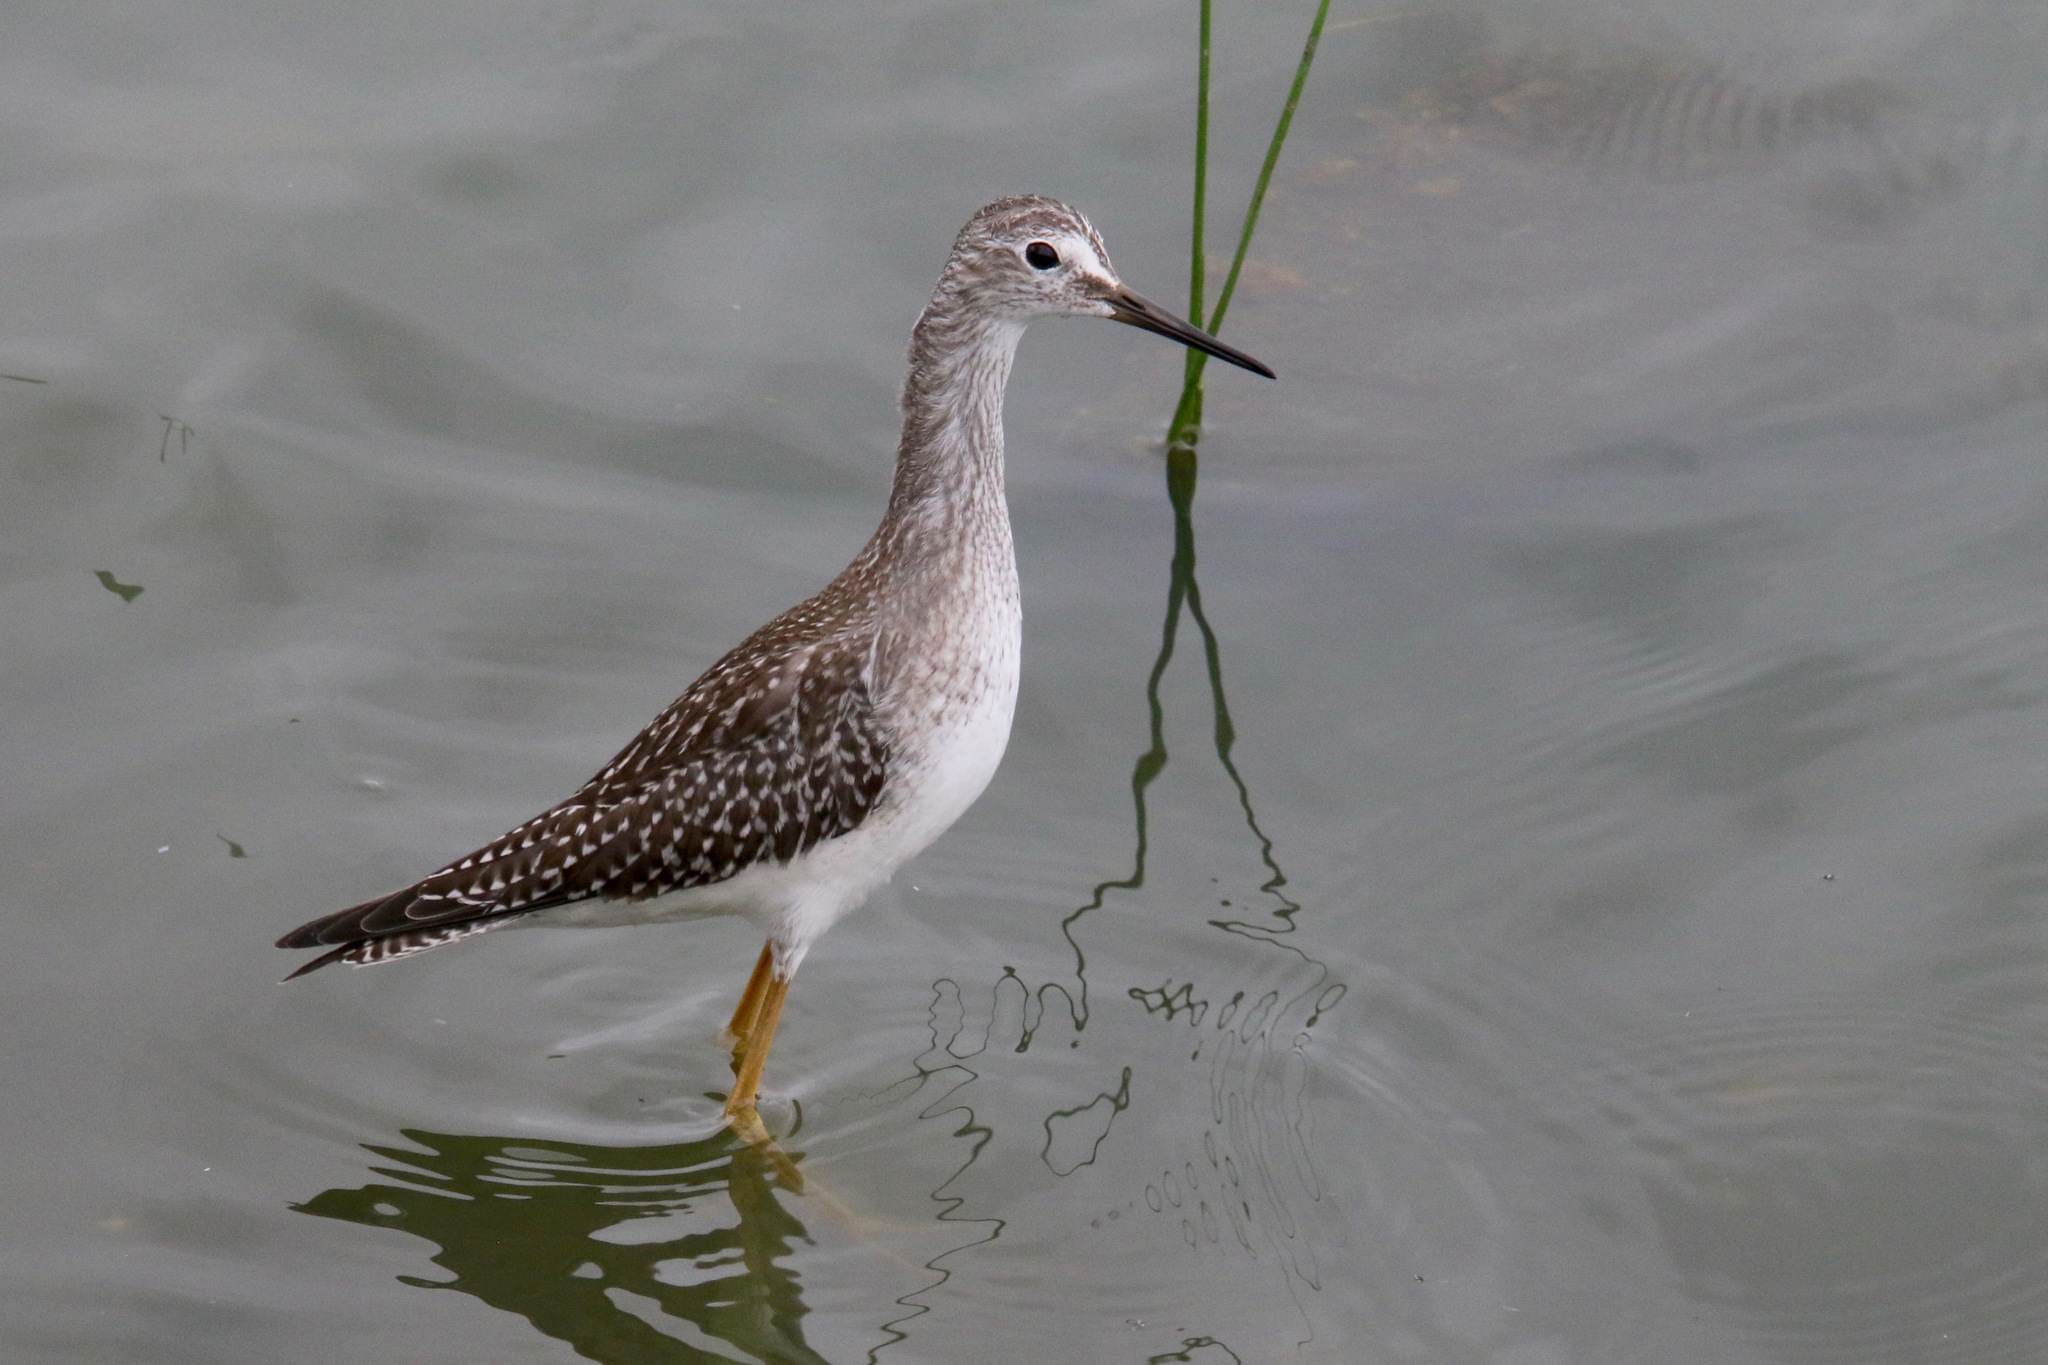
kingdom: Animalia
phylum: Chordata
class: Aves
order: Charadriiformes
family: Scolopacidae
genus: Tringa
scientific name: Tringa flavipes
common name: Lesser yellowlegs
